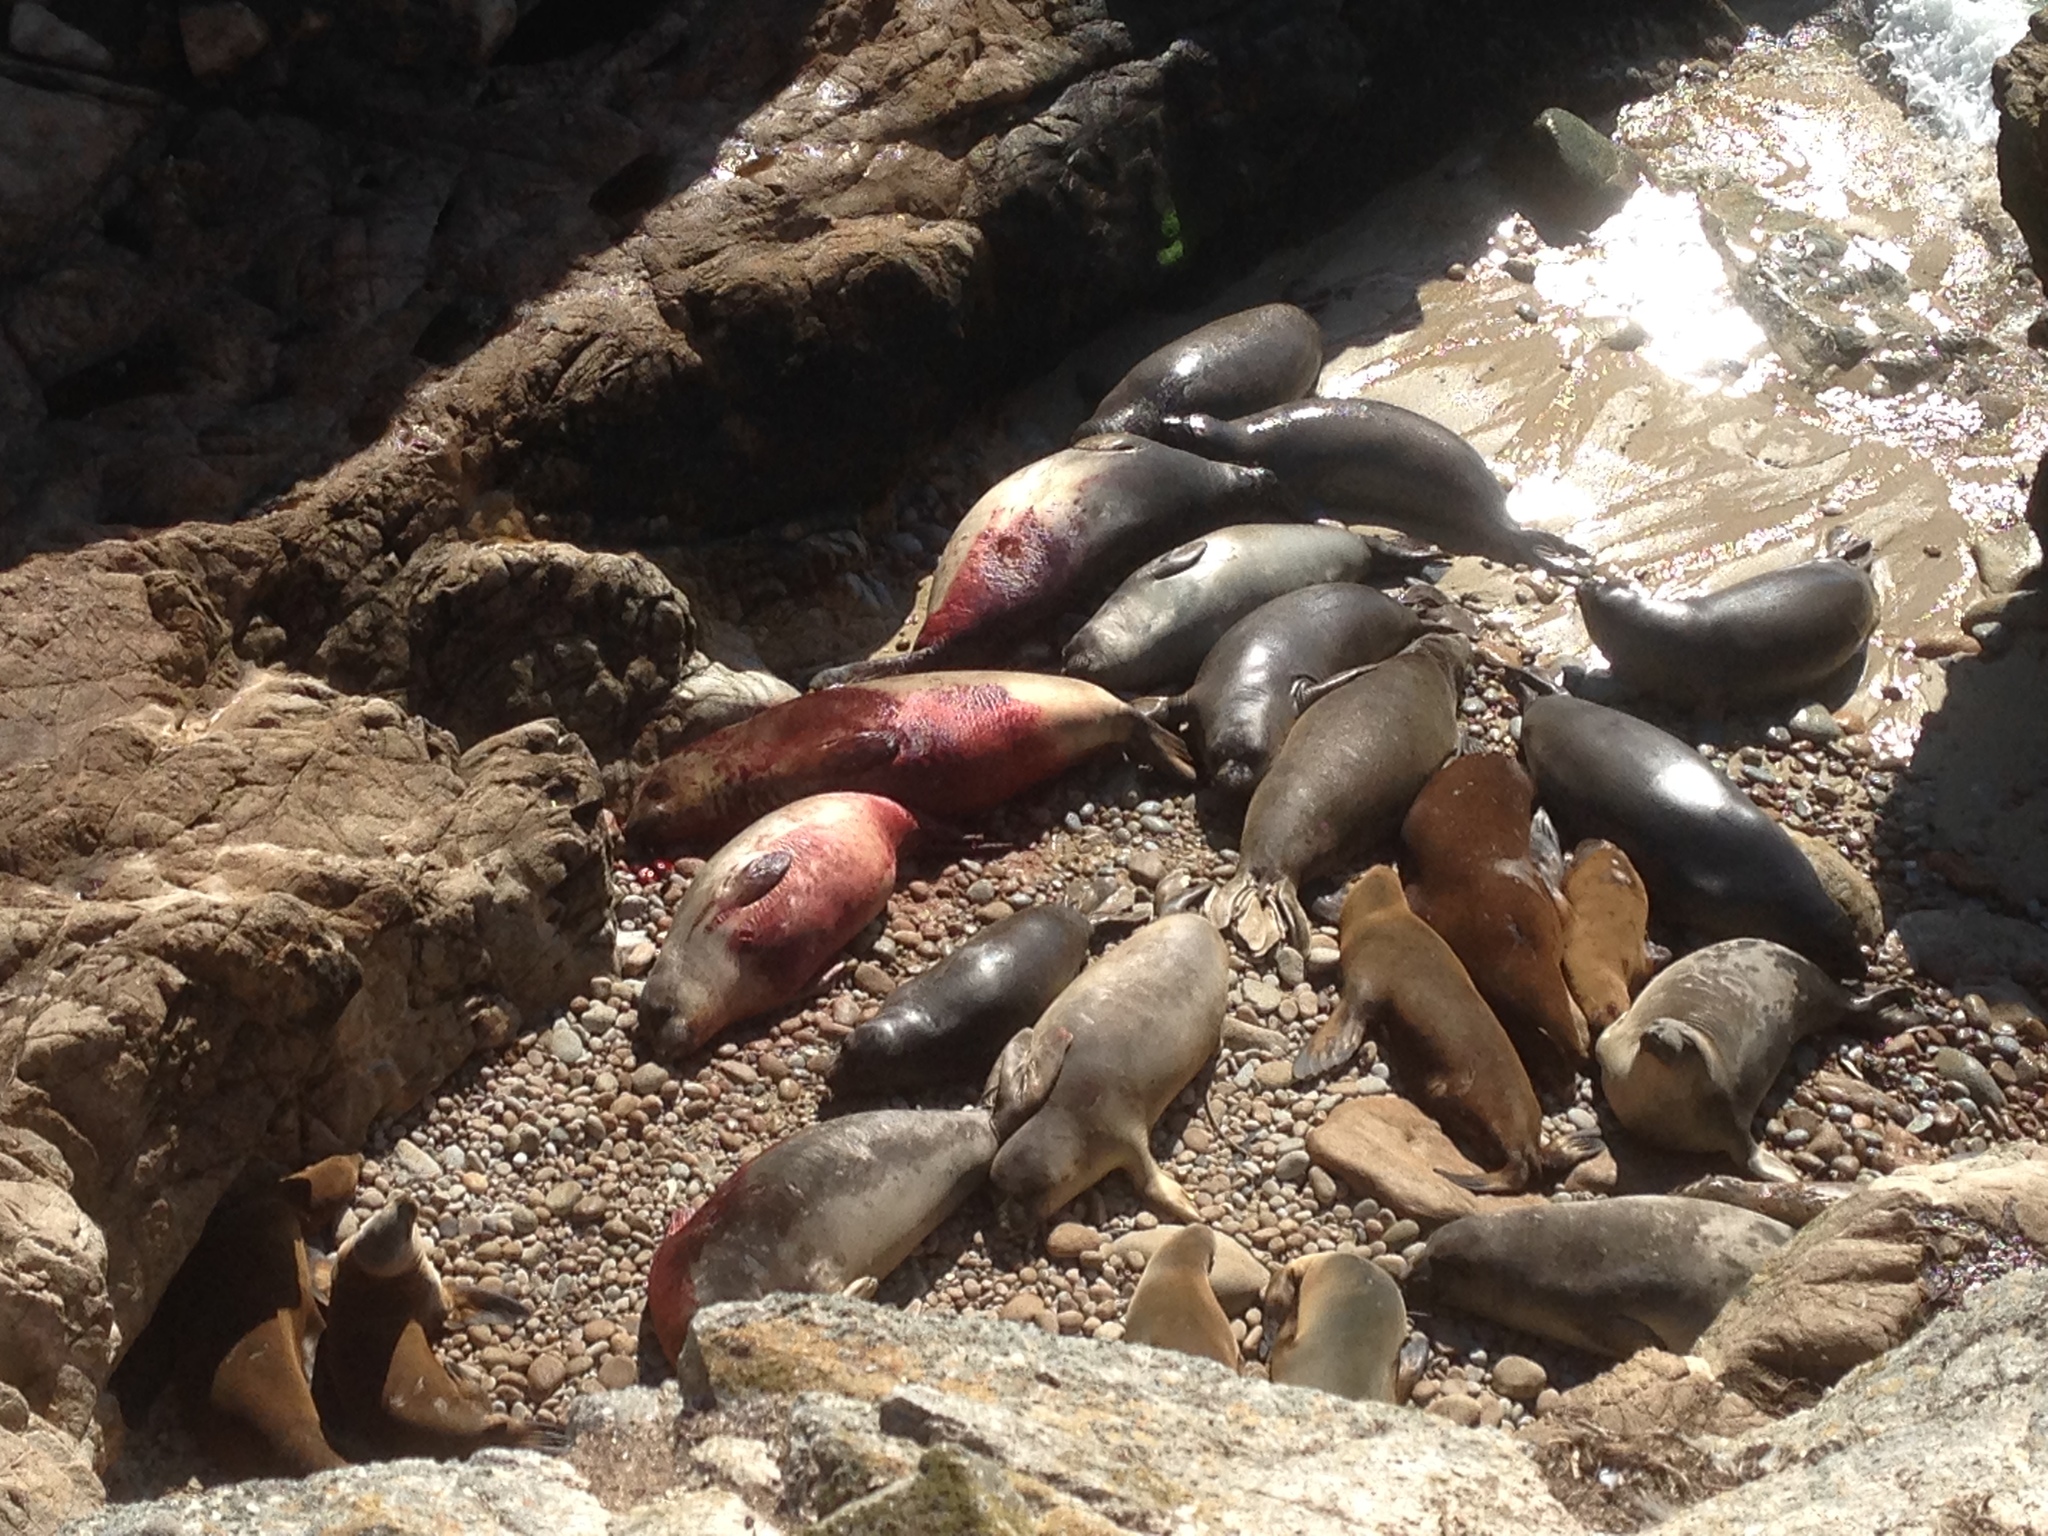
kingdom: Animalia
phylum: Chordata
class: Mammalia
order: Carnivora
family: Phocidae
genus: Mirounga
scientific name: Mirounga angustirostris
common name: Northern elephant seal
